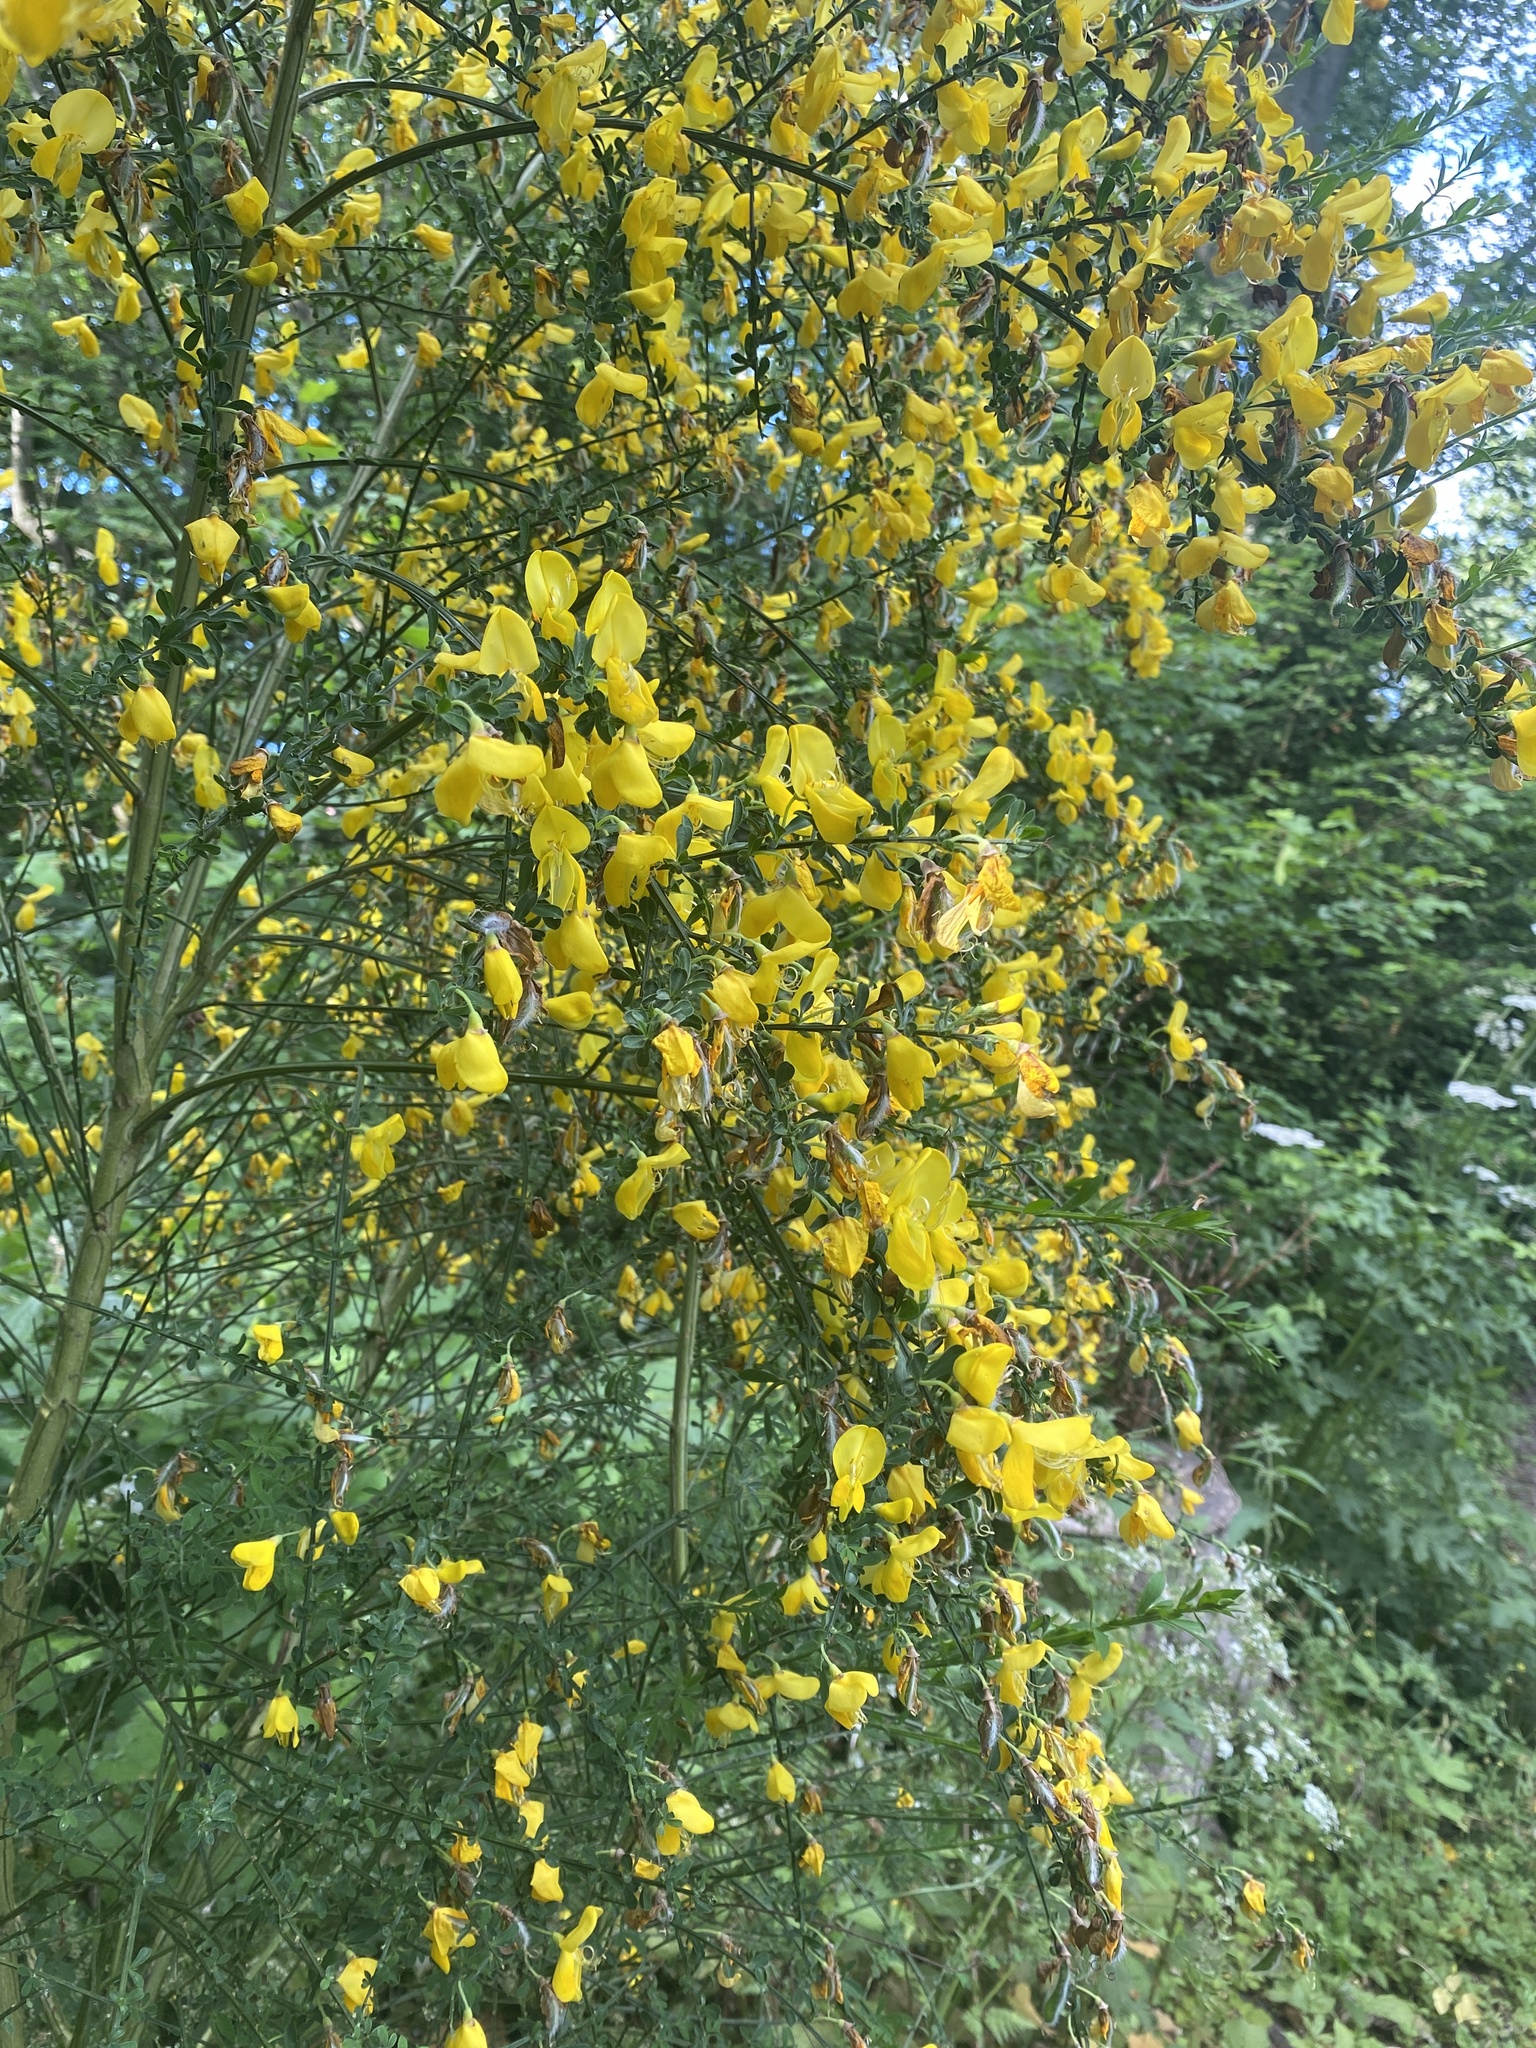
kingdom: Plantae
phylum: Tracheophyta
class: Magnoliopsida
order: Fabales
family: Fabaceae
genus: Cytisus
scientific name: Cytisus scoparius
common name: Scotch broom
